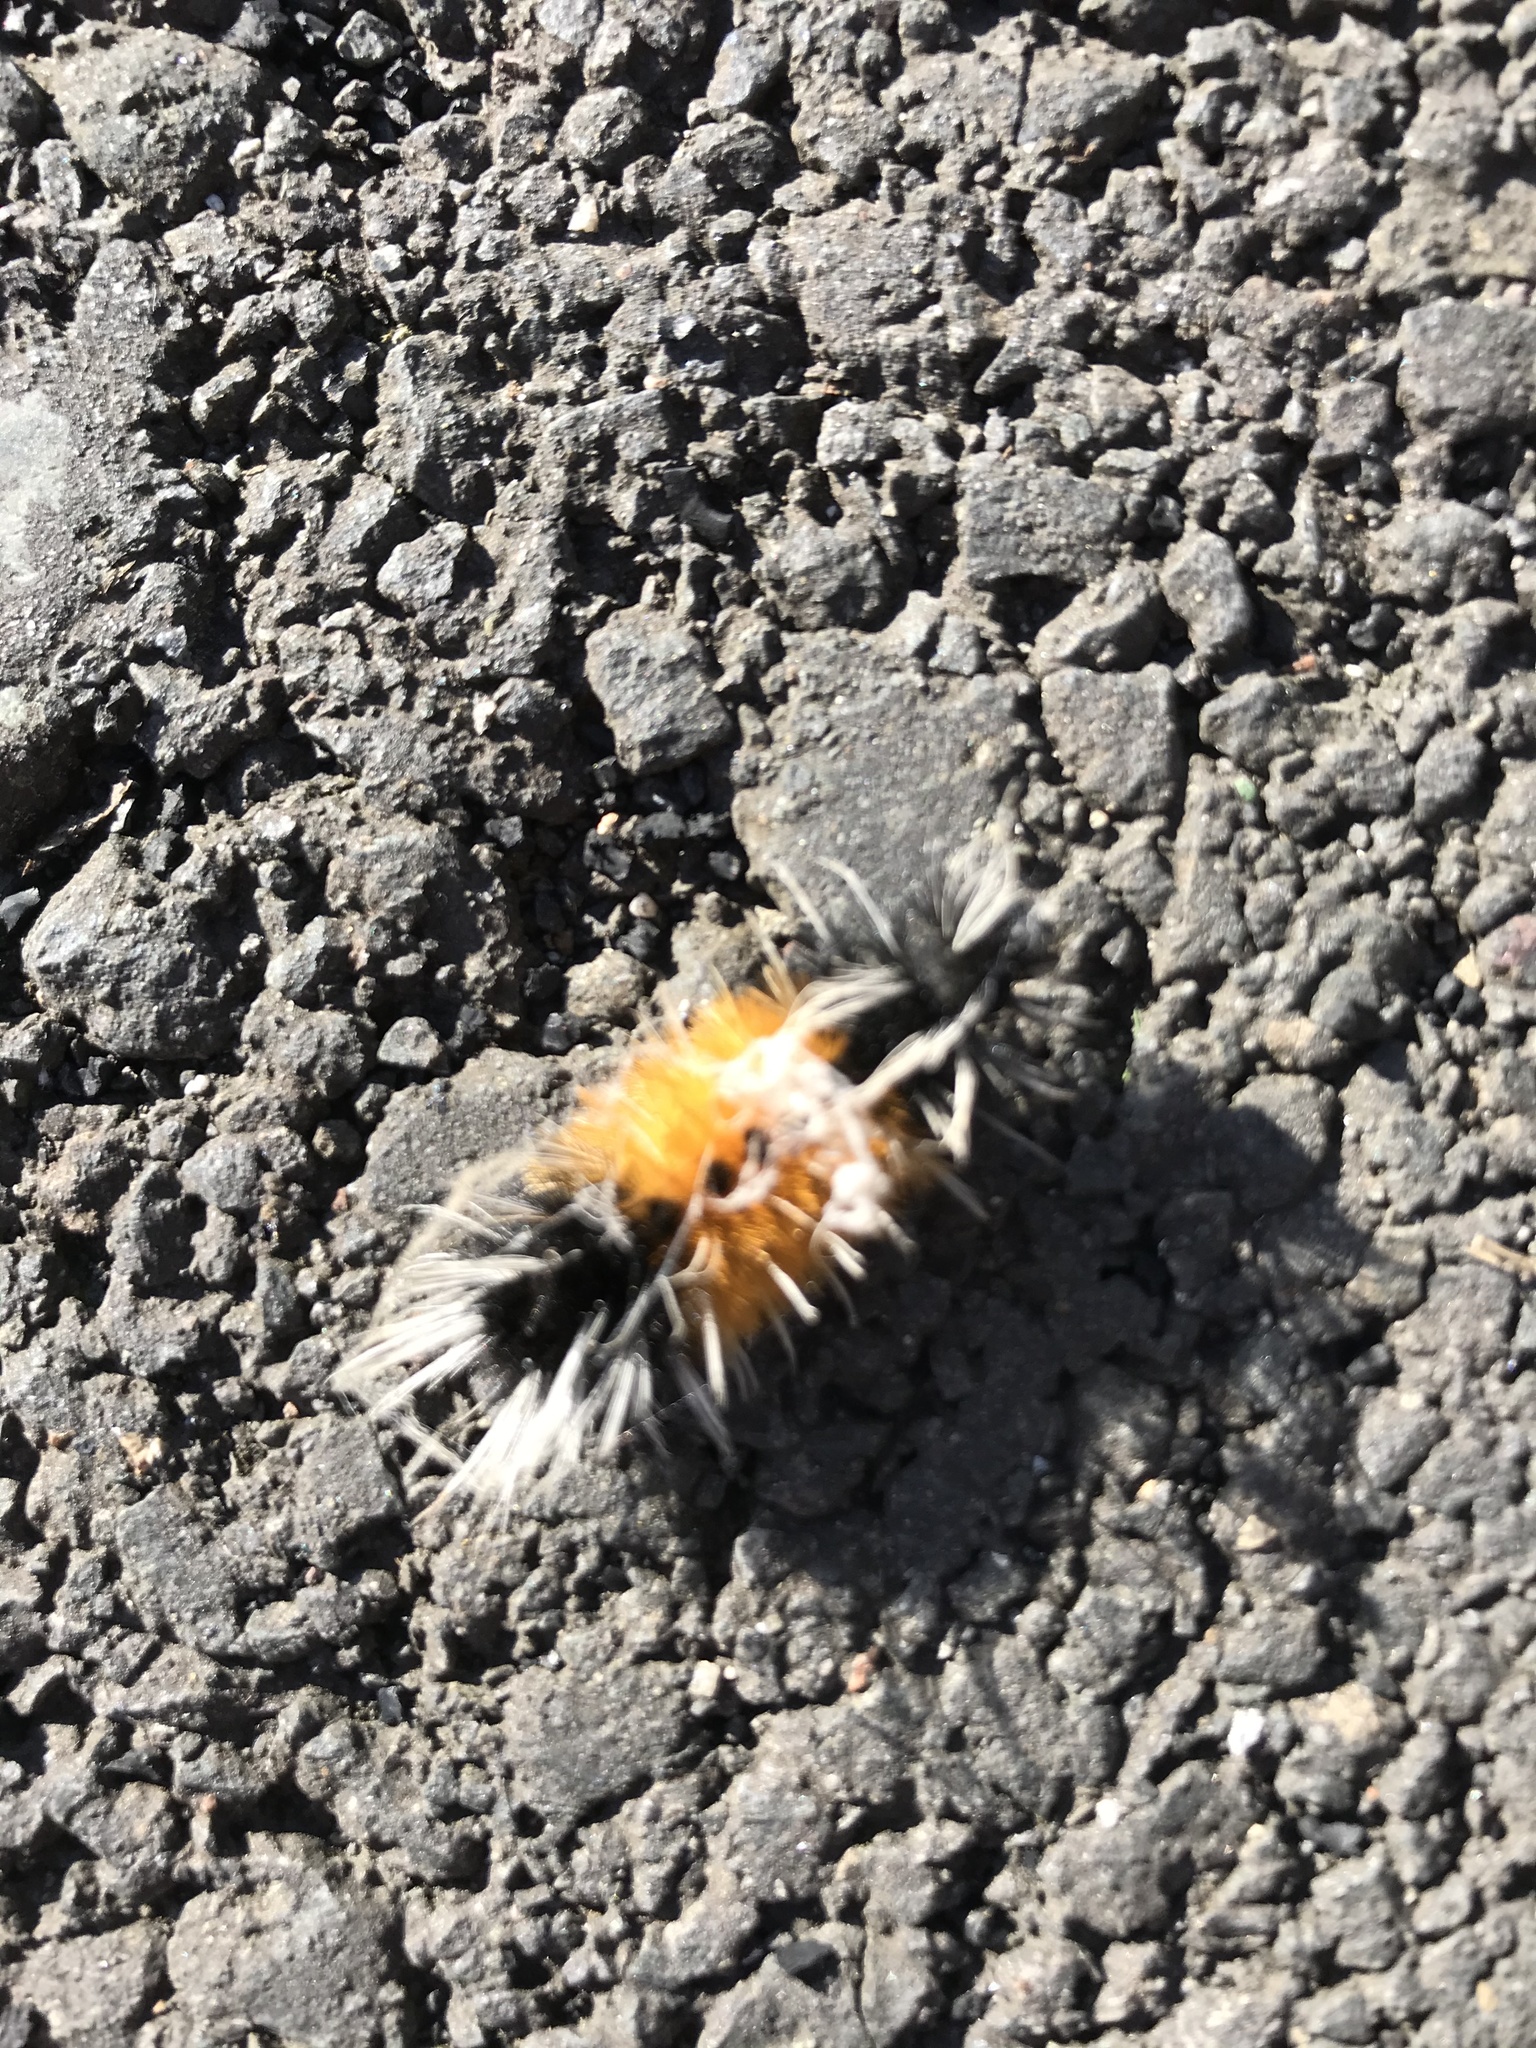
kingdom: Animalia
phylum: Arthropoda
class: Insecta
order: Lepidoptera
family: Erebidae
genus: Lophocampa
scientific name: Lophocampa maculata
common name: Spotted tussock moth
